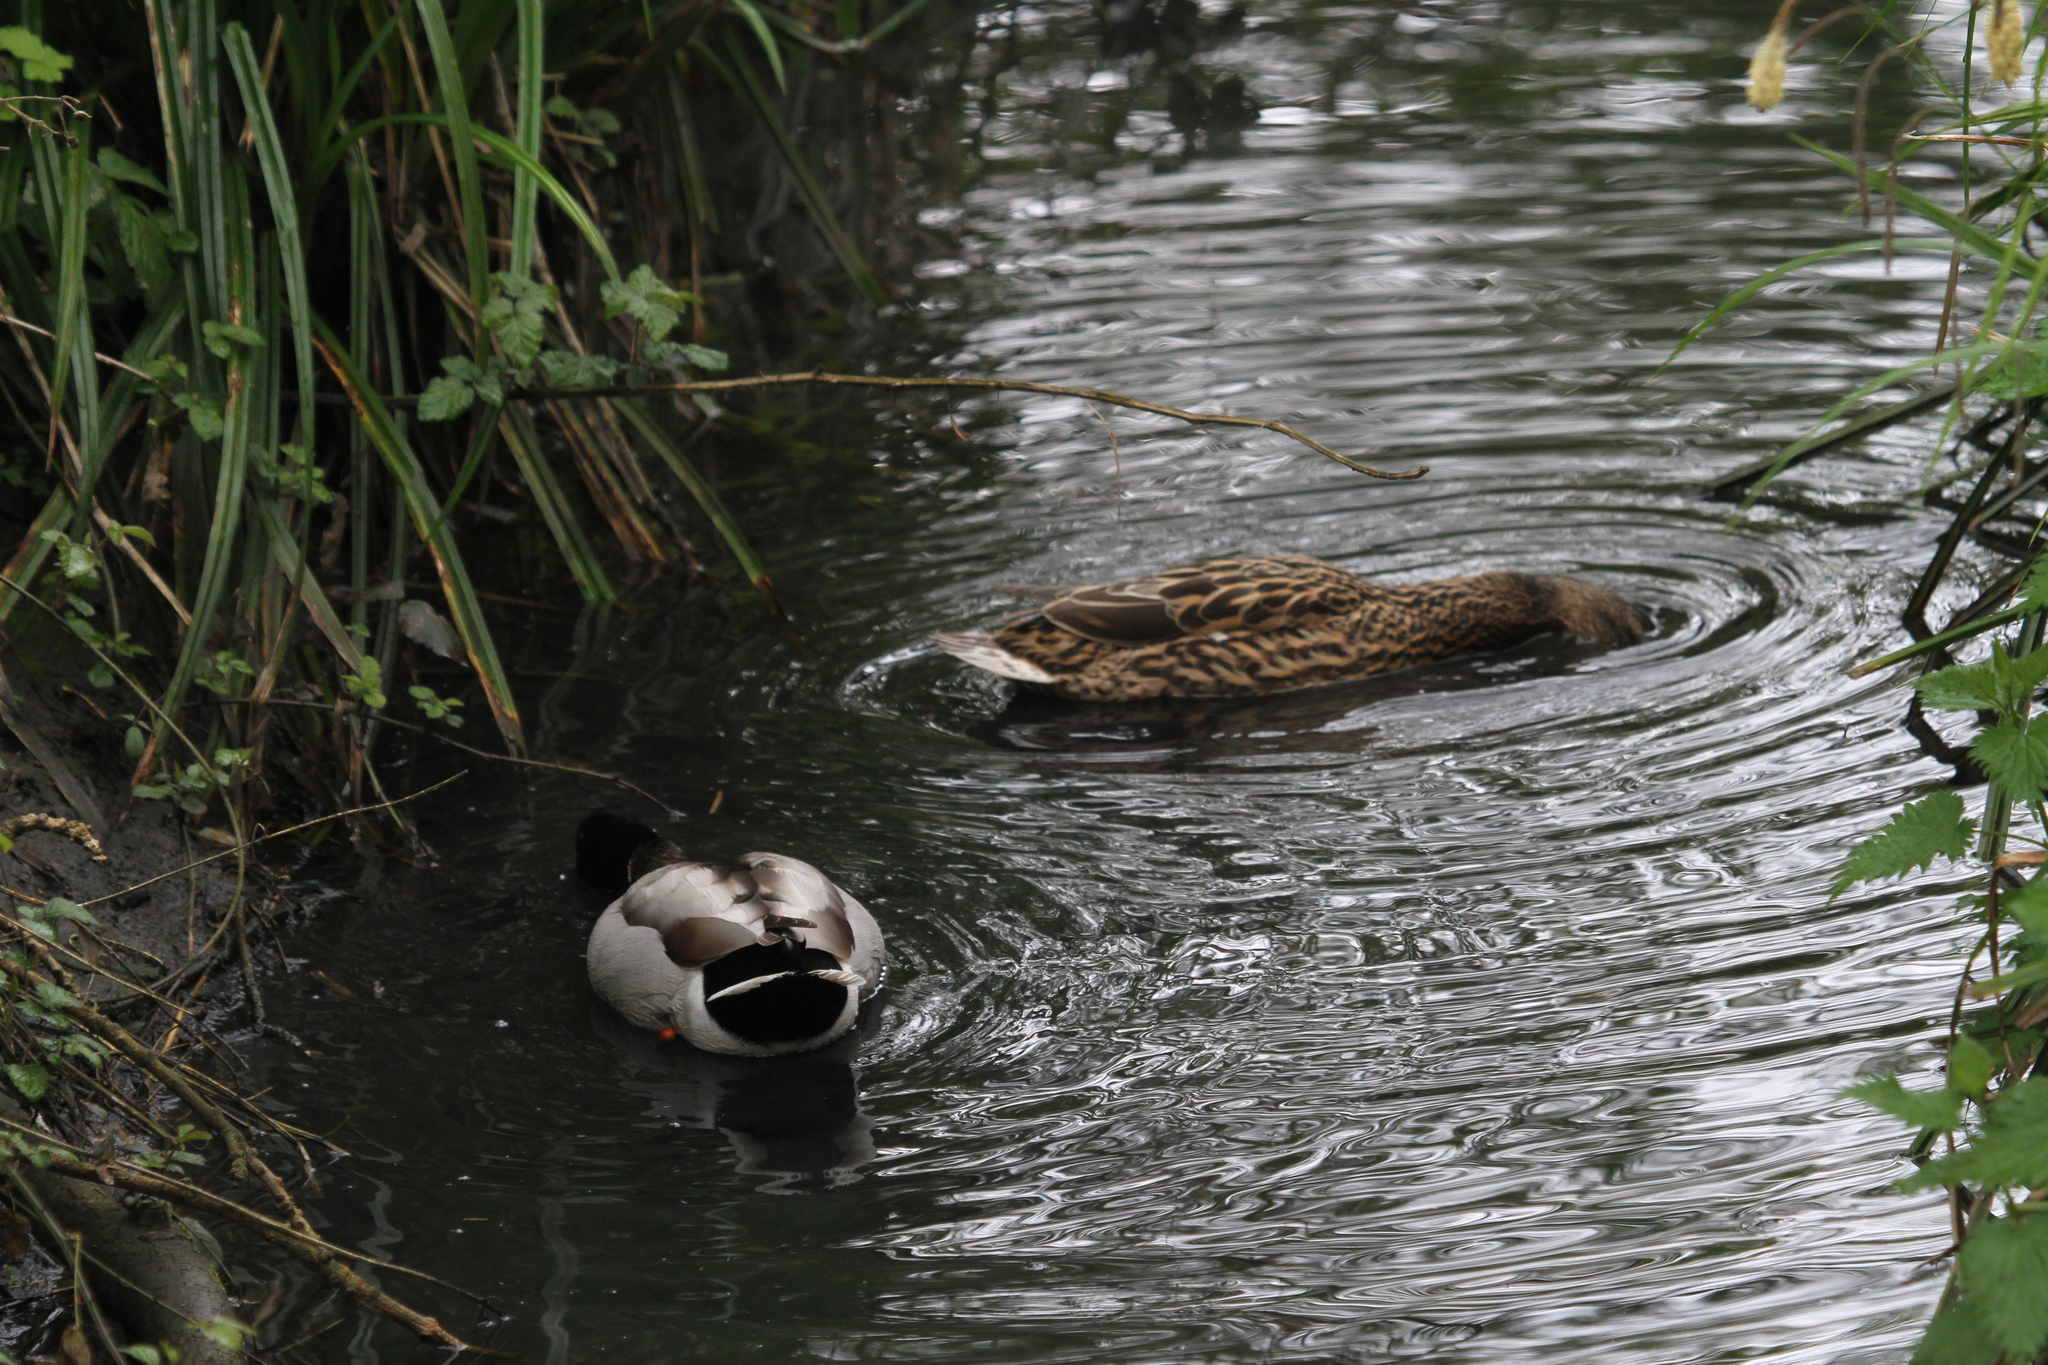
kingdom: Animalia
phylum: Chordata
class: Aves
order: Anseriformes
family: Anatidae
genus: Anas
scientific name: Anas platyrhynchos
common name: Mallard
